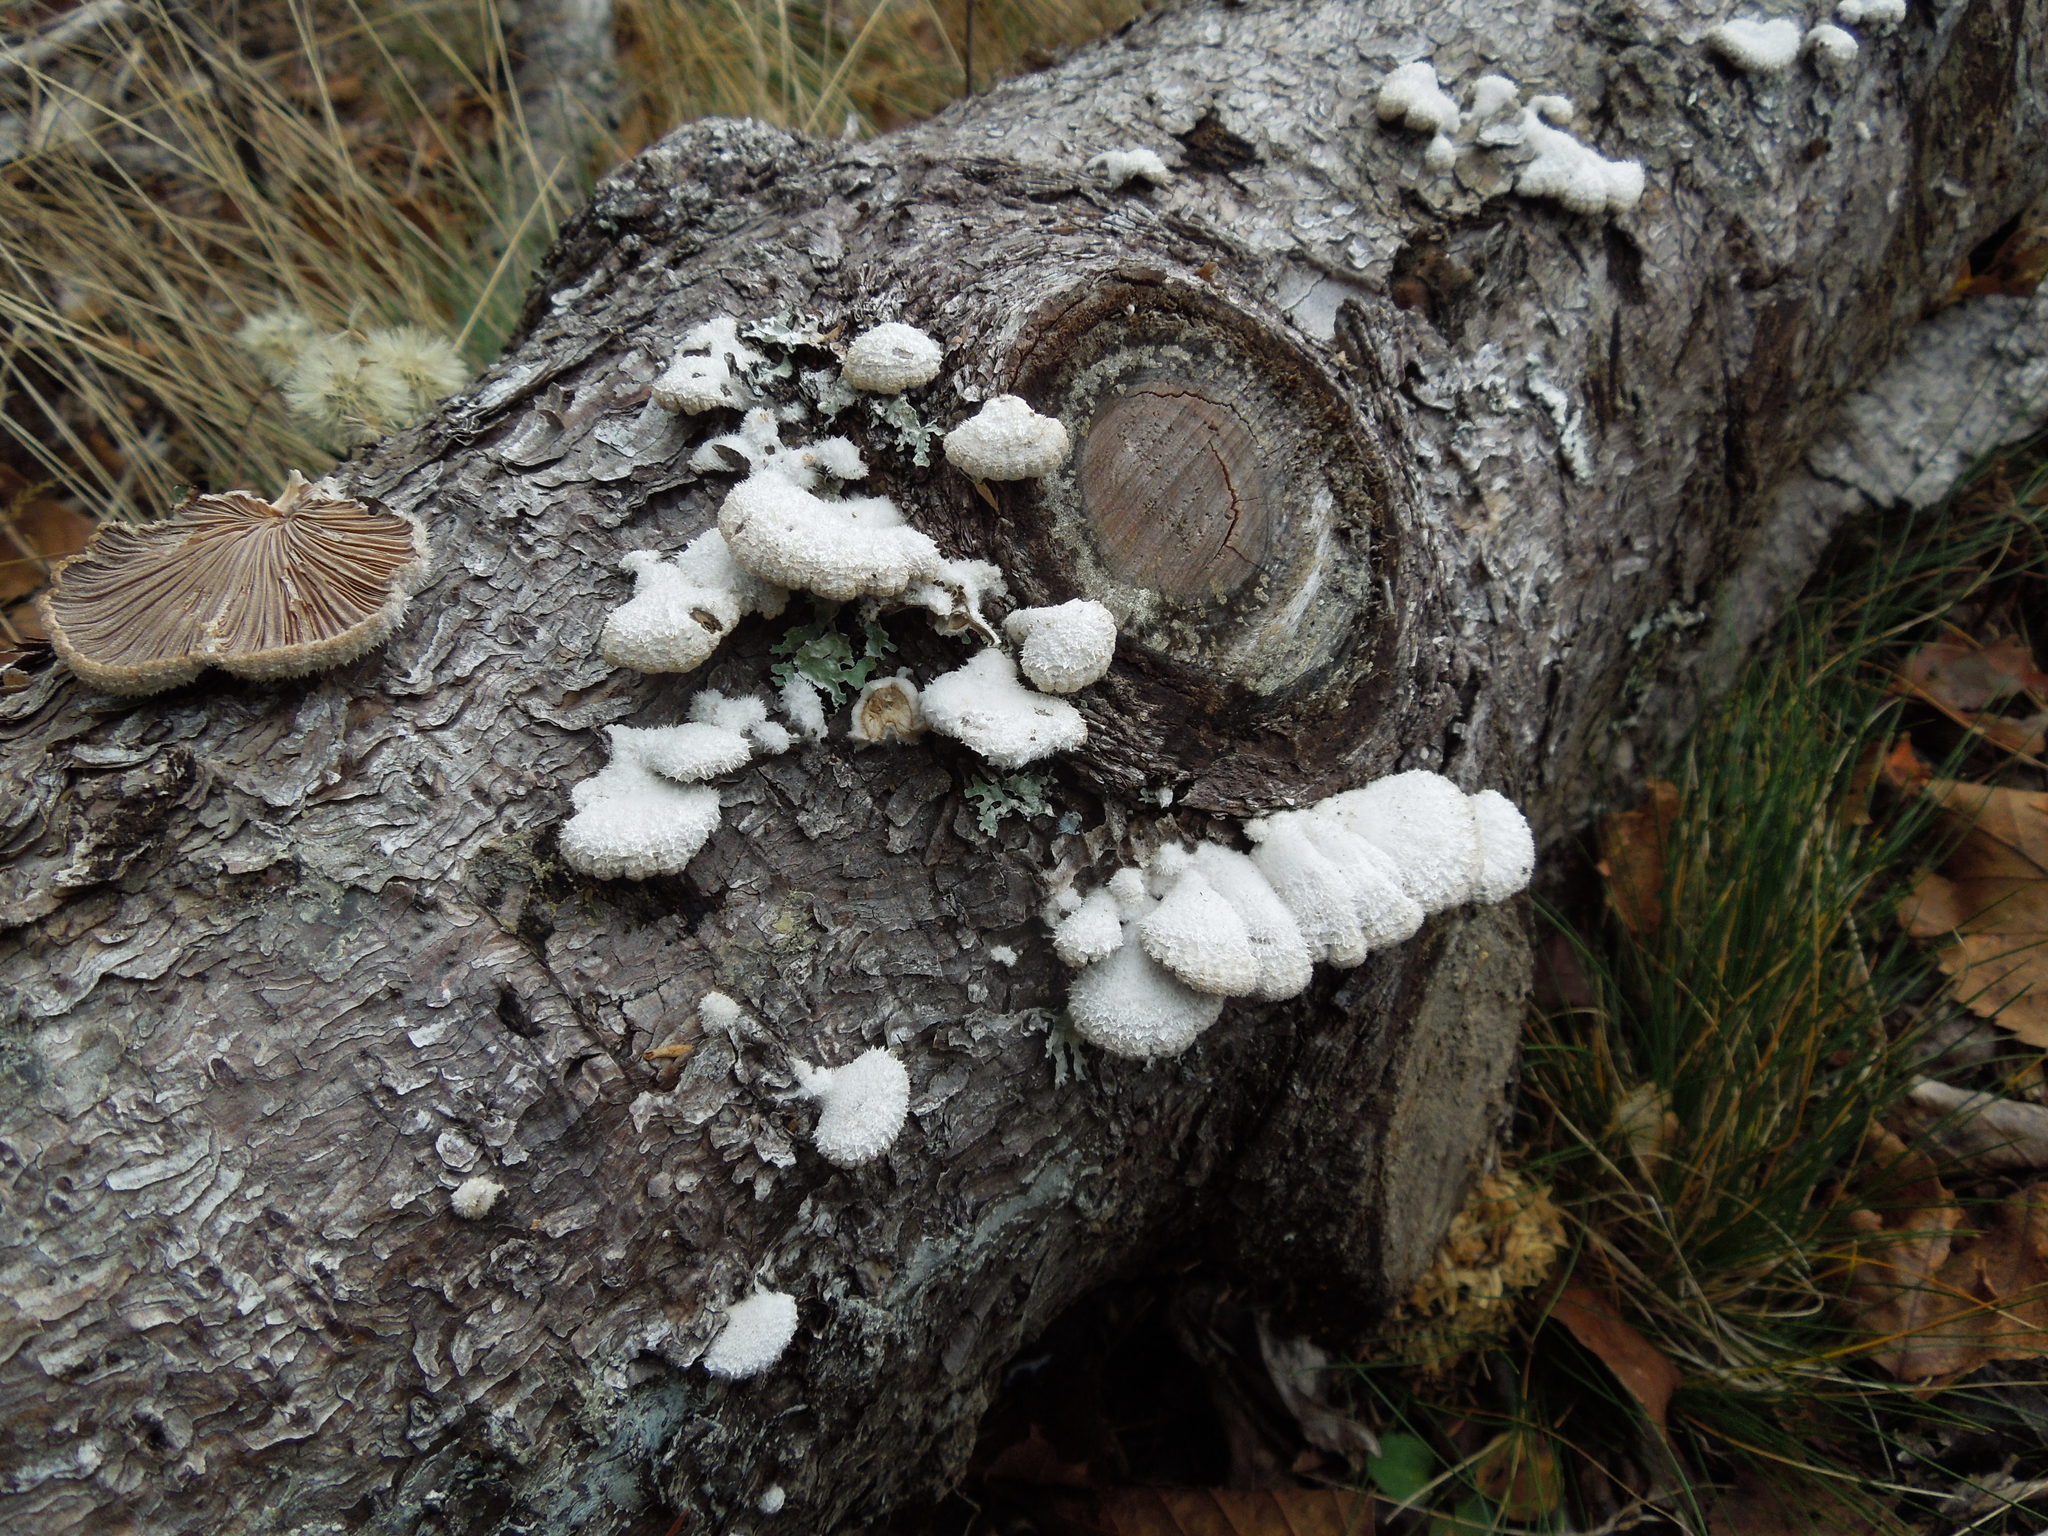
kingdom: Fungi
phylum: Basidiomycota
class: Agaricomycetes
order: Agaricales
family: Schizophyllaceae
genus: Schizophyllum
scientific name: Schizophyllum commune
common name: Common porecrust
